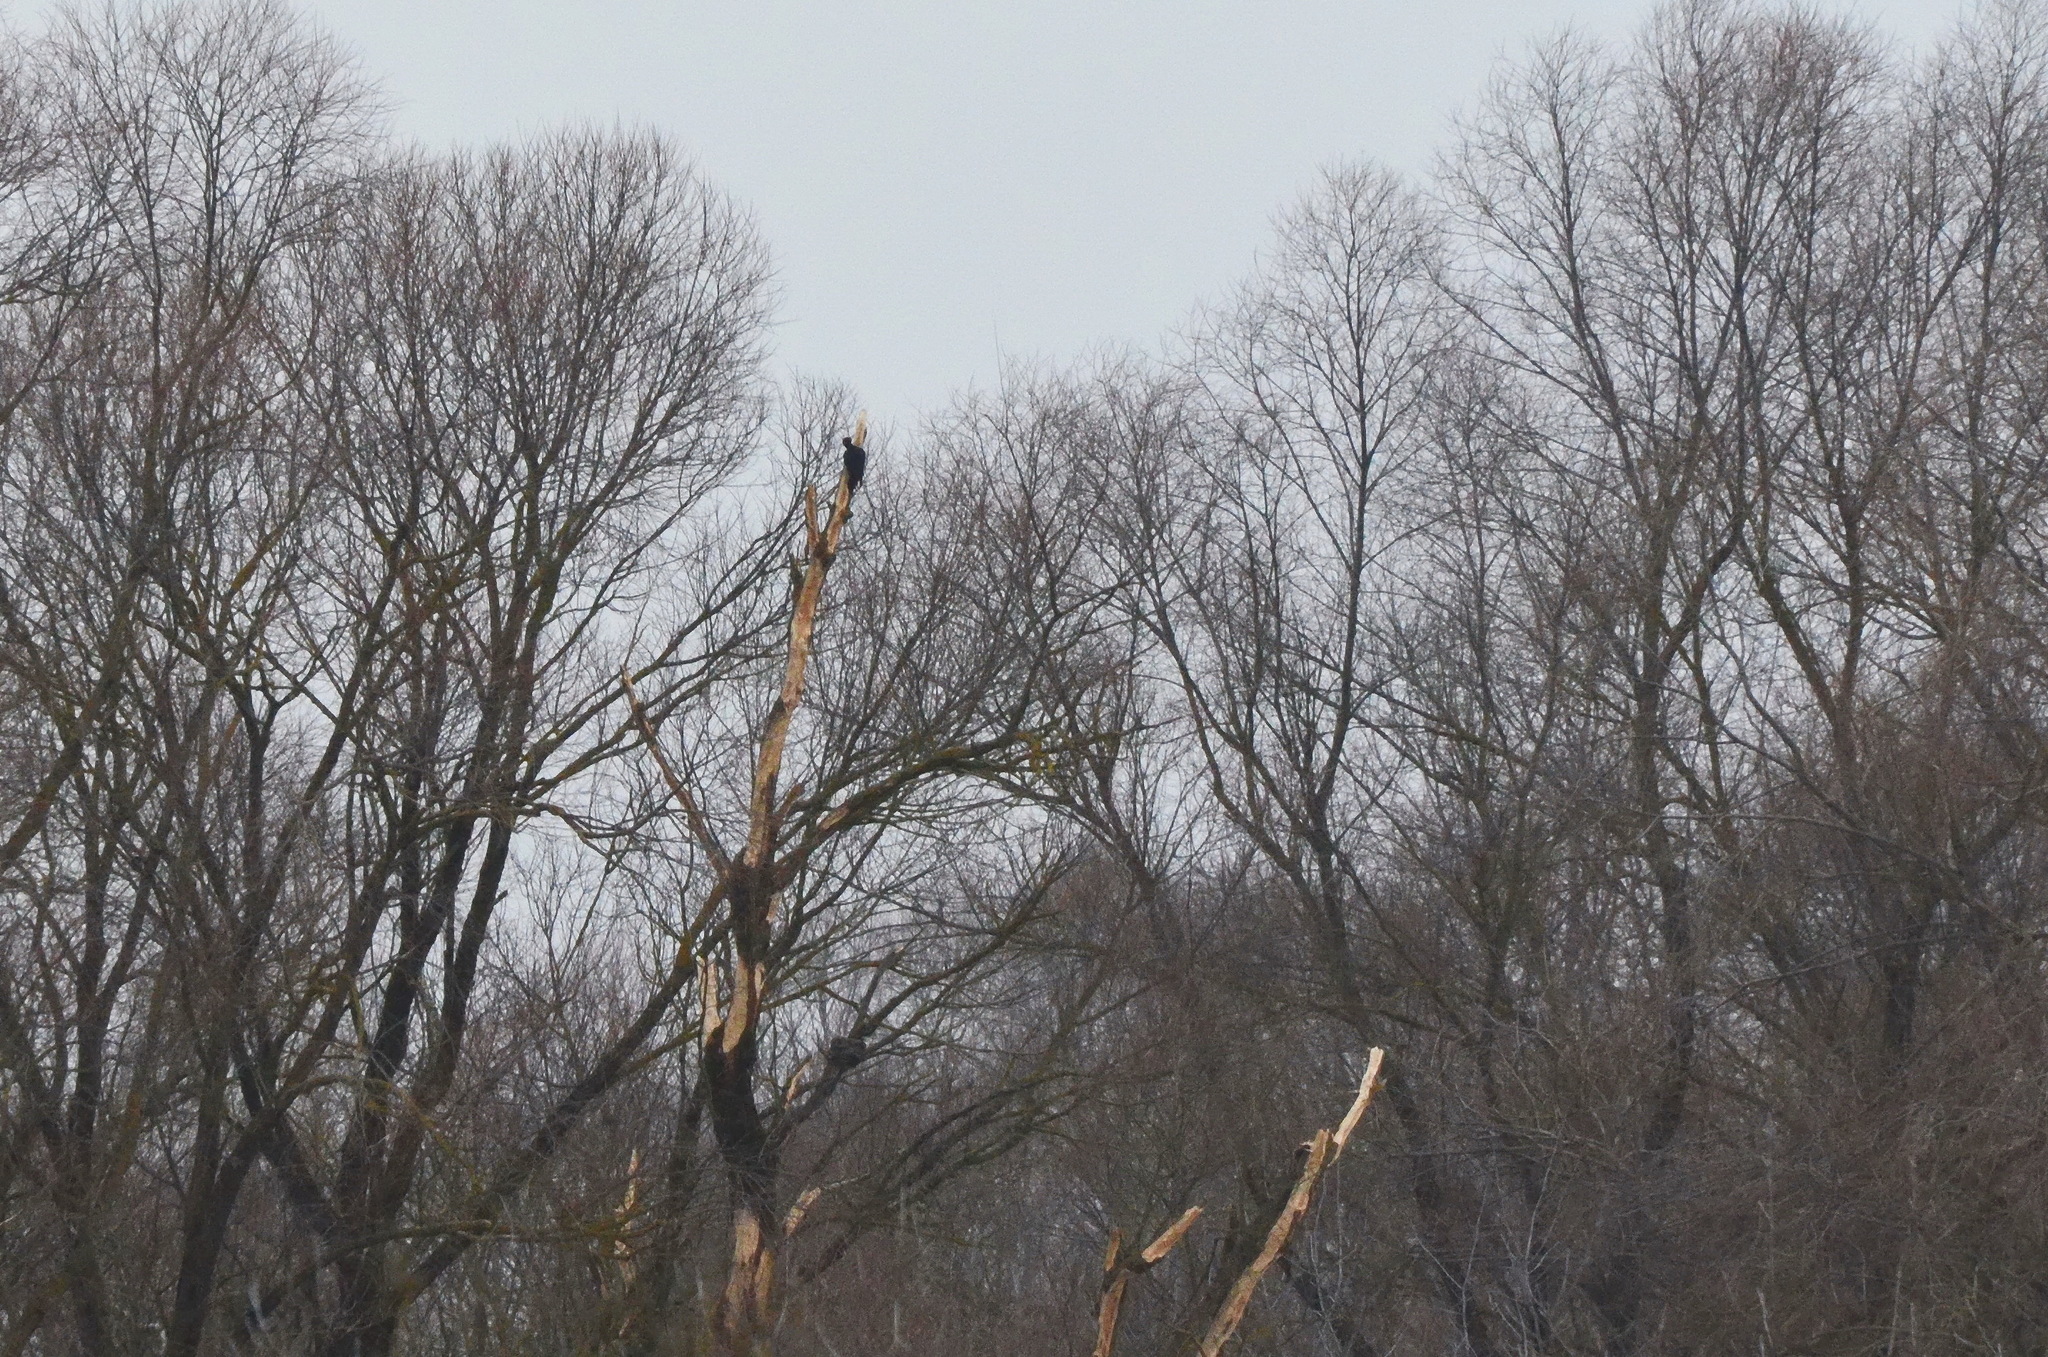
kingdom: Animalia
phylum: Chordata
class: Aves
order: Piciformes
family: Picidae
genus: Dryocopus
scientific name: Dryocopus martius
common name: Black woodpecker
